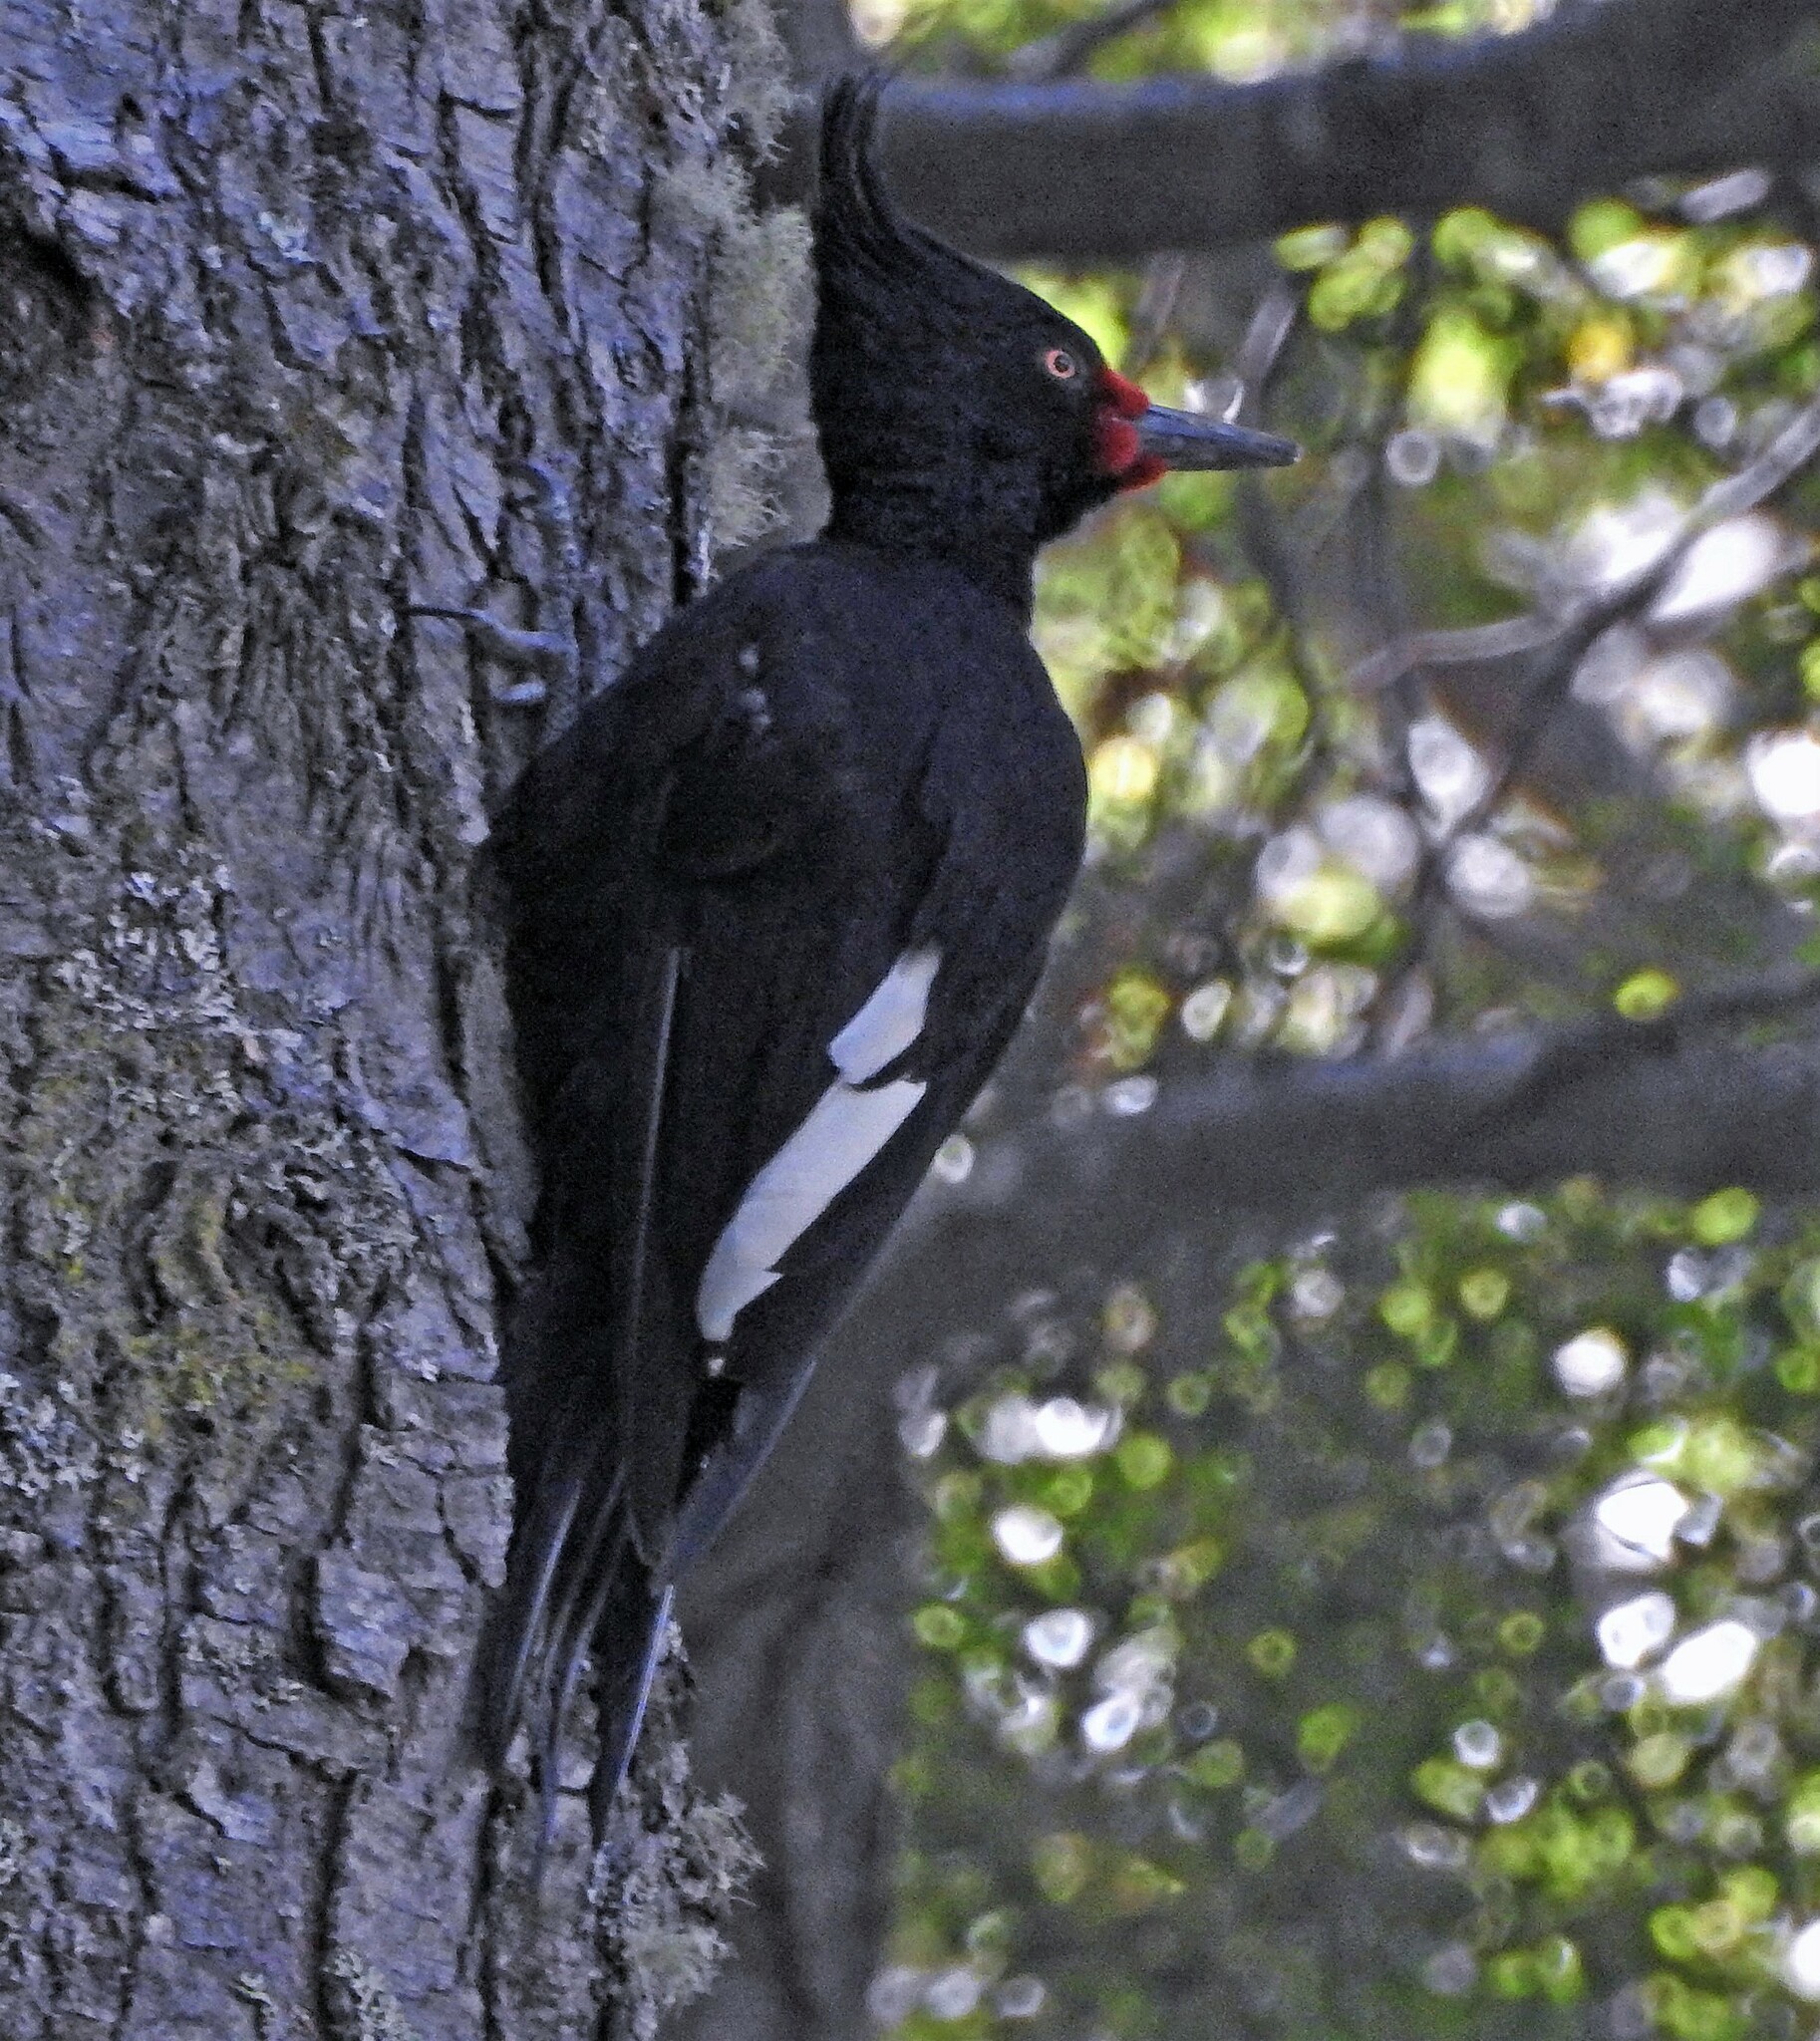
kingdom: Animalia
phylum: Chordata
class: Aves
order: Piciformes
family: Picidae
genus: Campephilus
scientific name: Campephilus magellanicus
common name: Magellanic woodpecker
